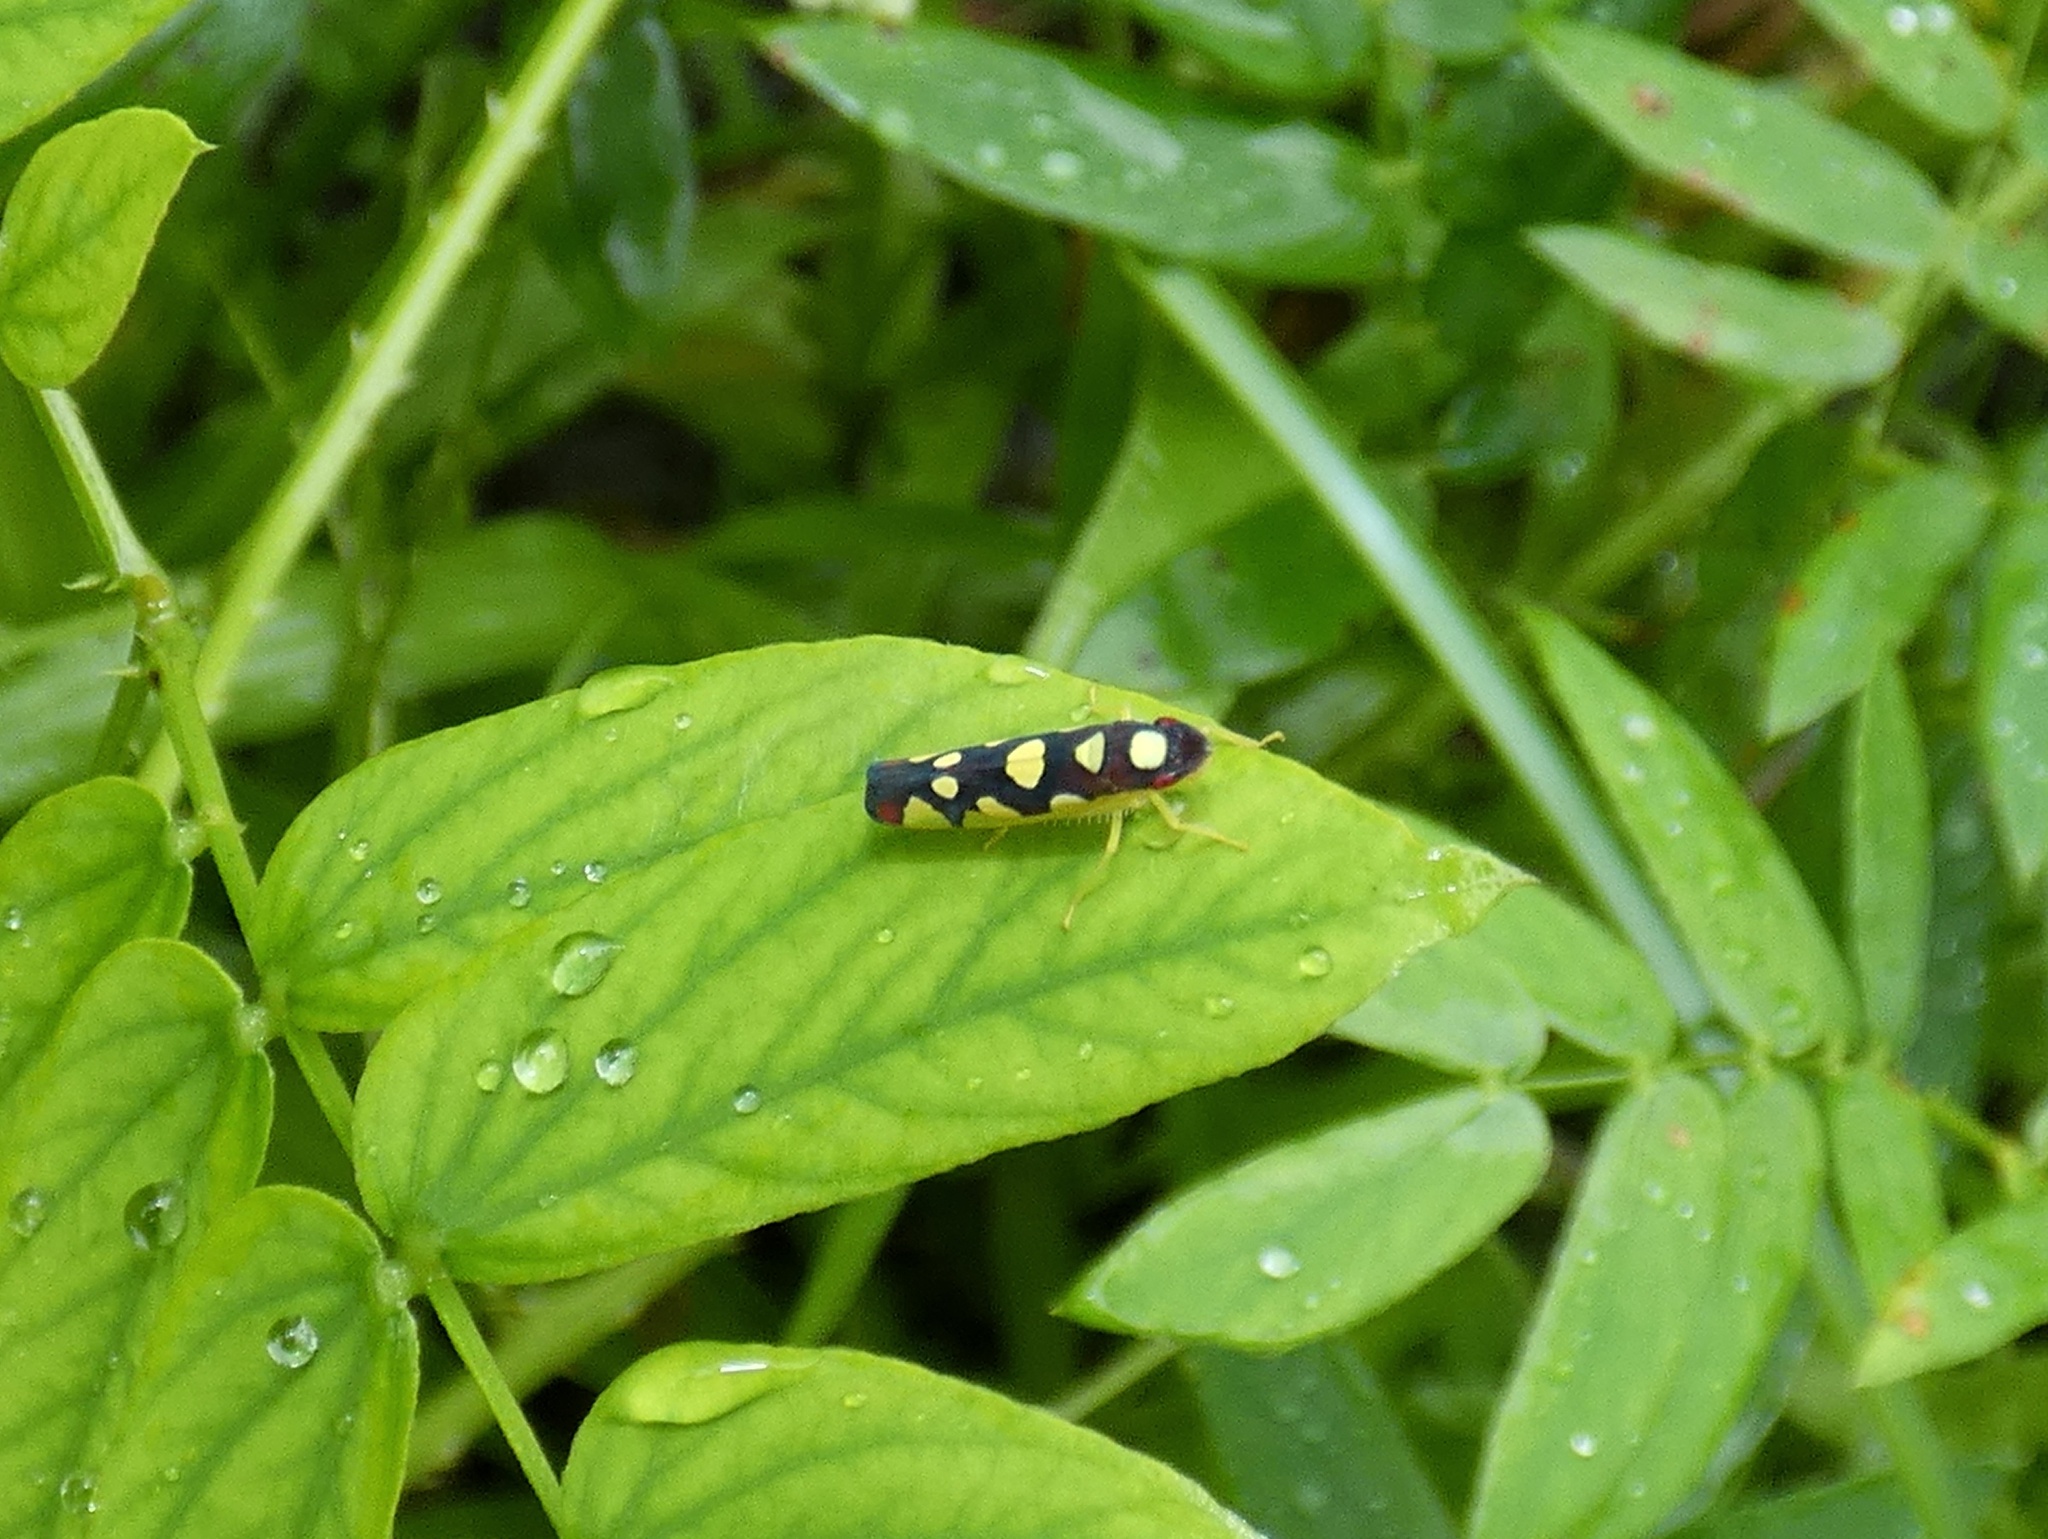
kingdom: Animalia
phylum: Arthropoda
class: Insecta
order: Hemiptera
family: Cicadellidae
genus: Baleja
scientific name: Baleja flavoguttata
